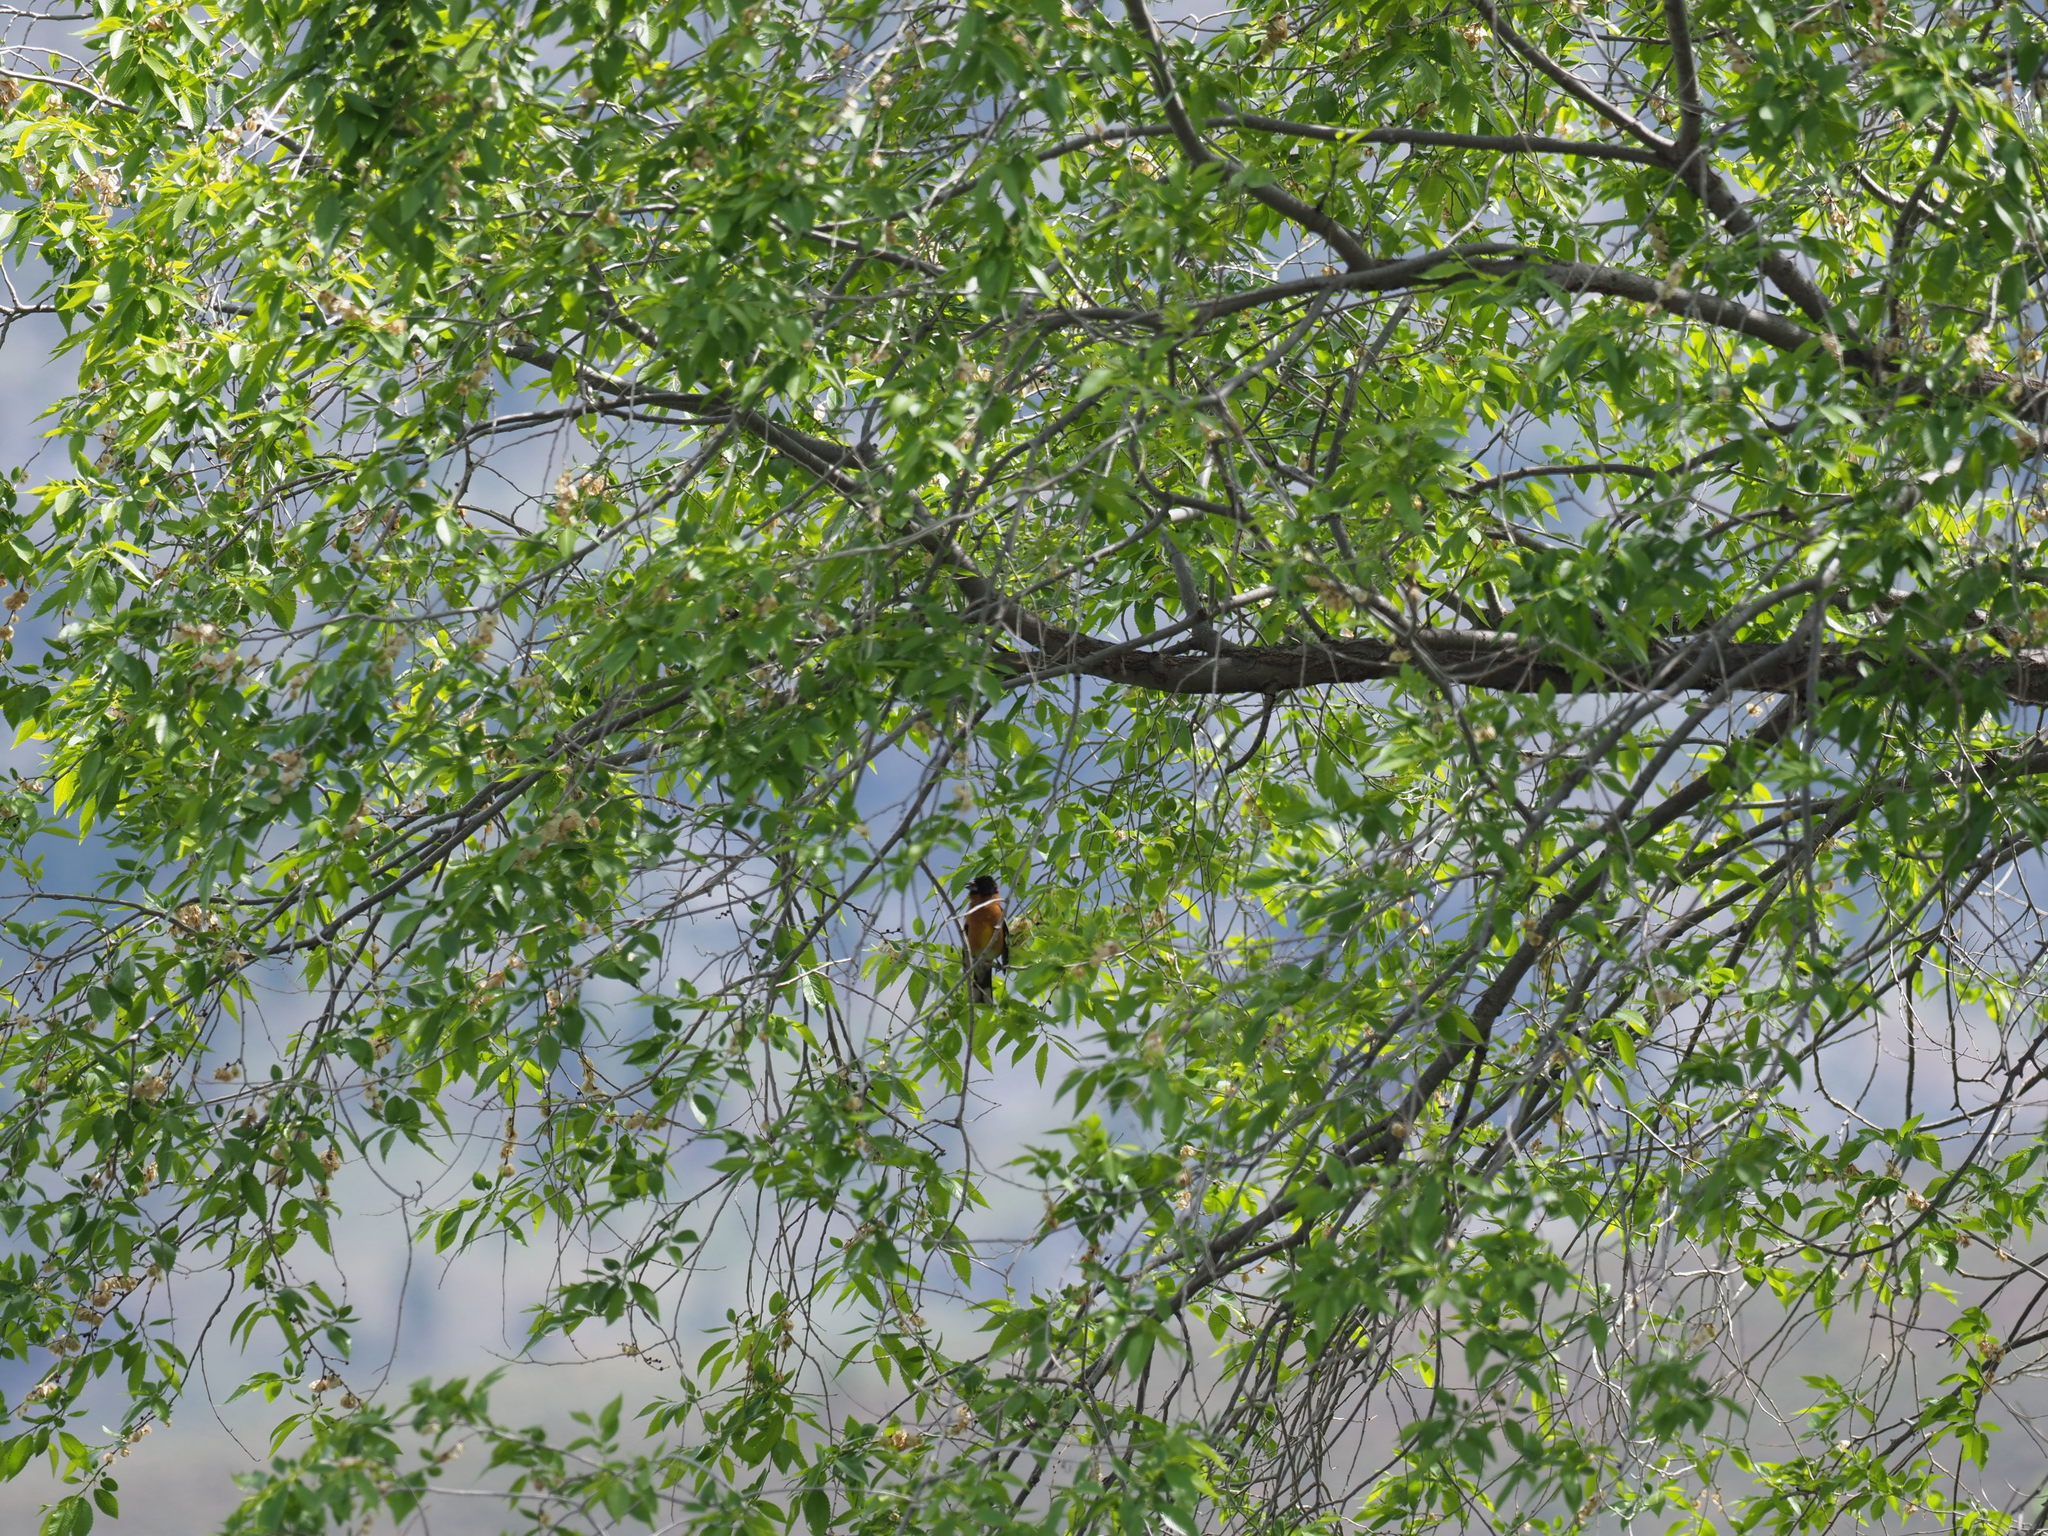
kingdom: Animalia
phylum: Chordata
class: Aves
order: Passeriformes
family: Cardinalidae
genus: Pheucticus
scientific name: Pheucticus melanocephalus
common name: Black-headed grosbeak
